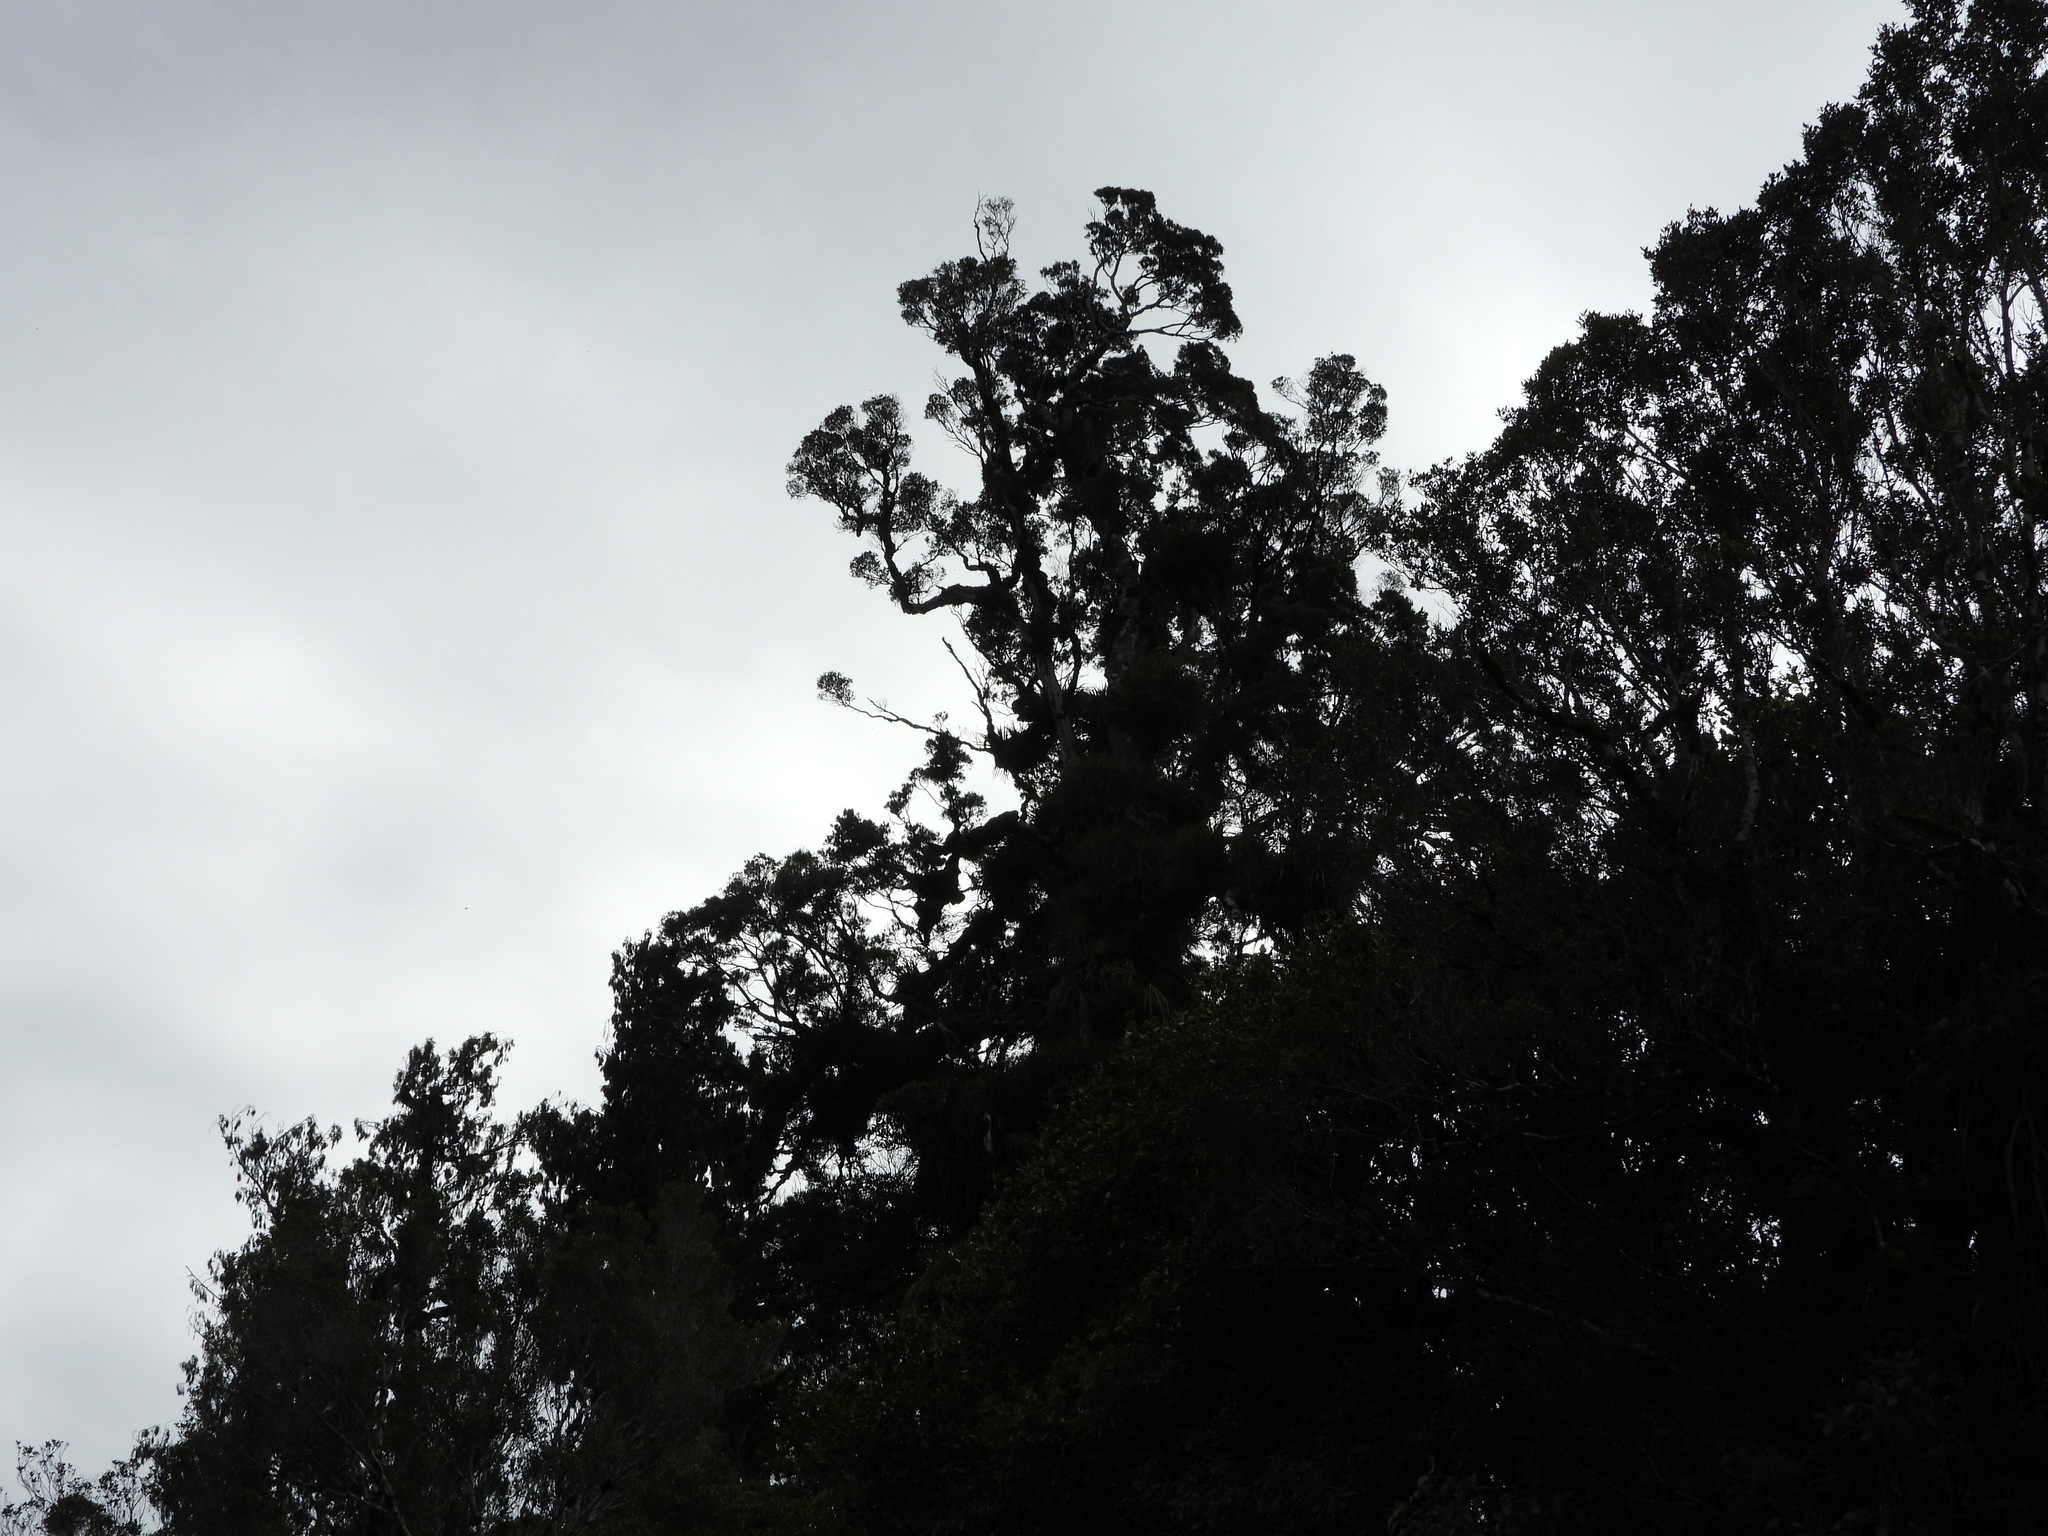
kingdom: Plantae
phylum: Tracheophyta
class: Magnoliopsida
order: Apiales
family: Pittosporaceae
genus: Pittosporum
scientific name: Pittosporum kirkii
